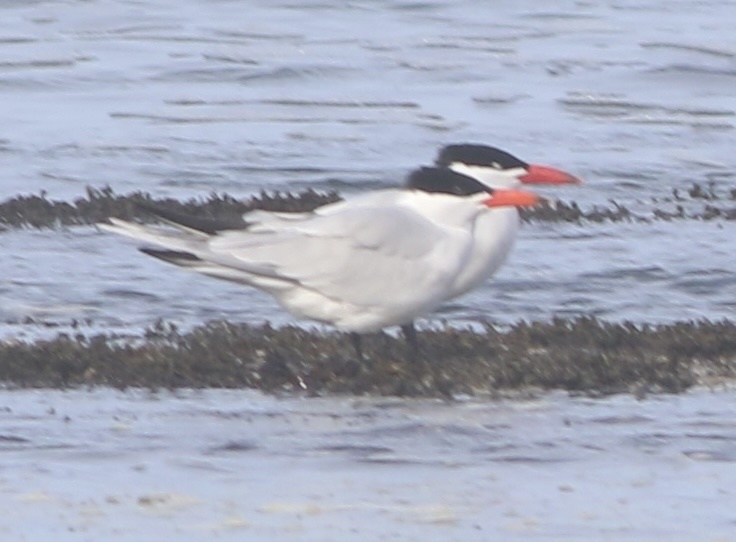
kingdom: Animalia
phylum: Chordata
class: Aves
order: Charadriiformes
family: Laridae
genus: Hydroprogne
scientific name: Hydroprogne caspia
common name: Caspian tern
